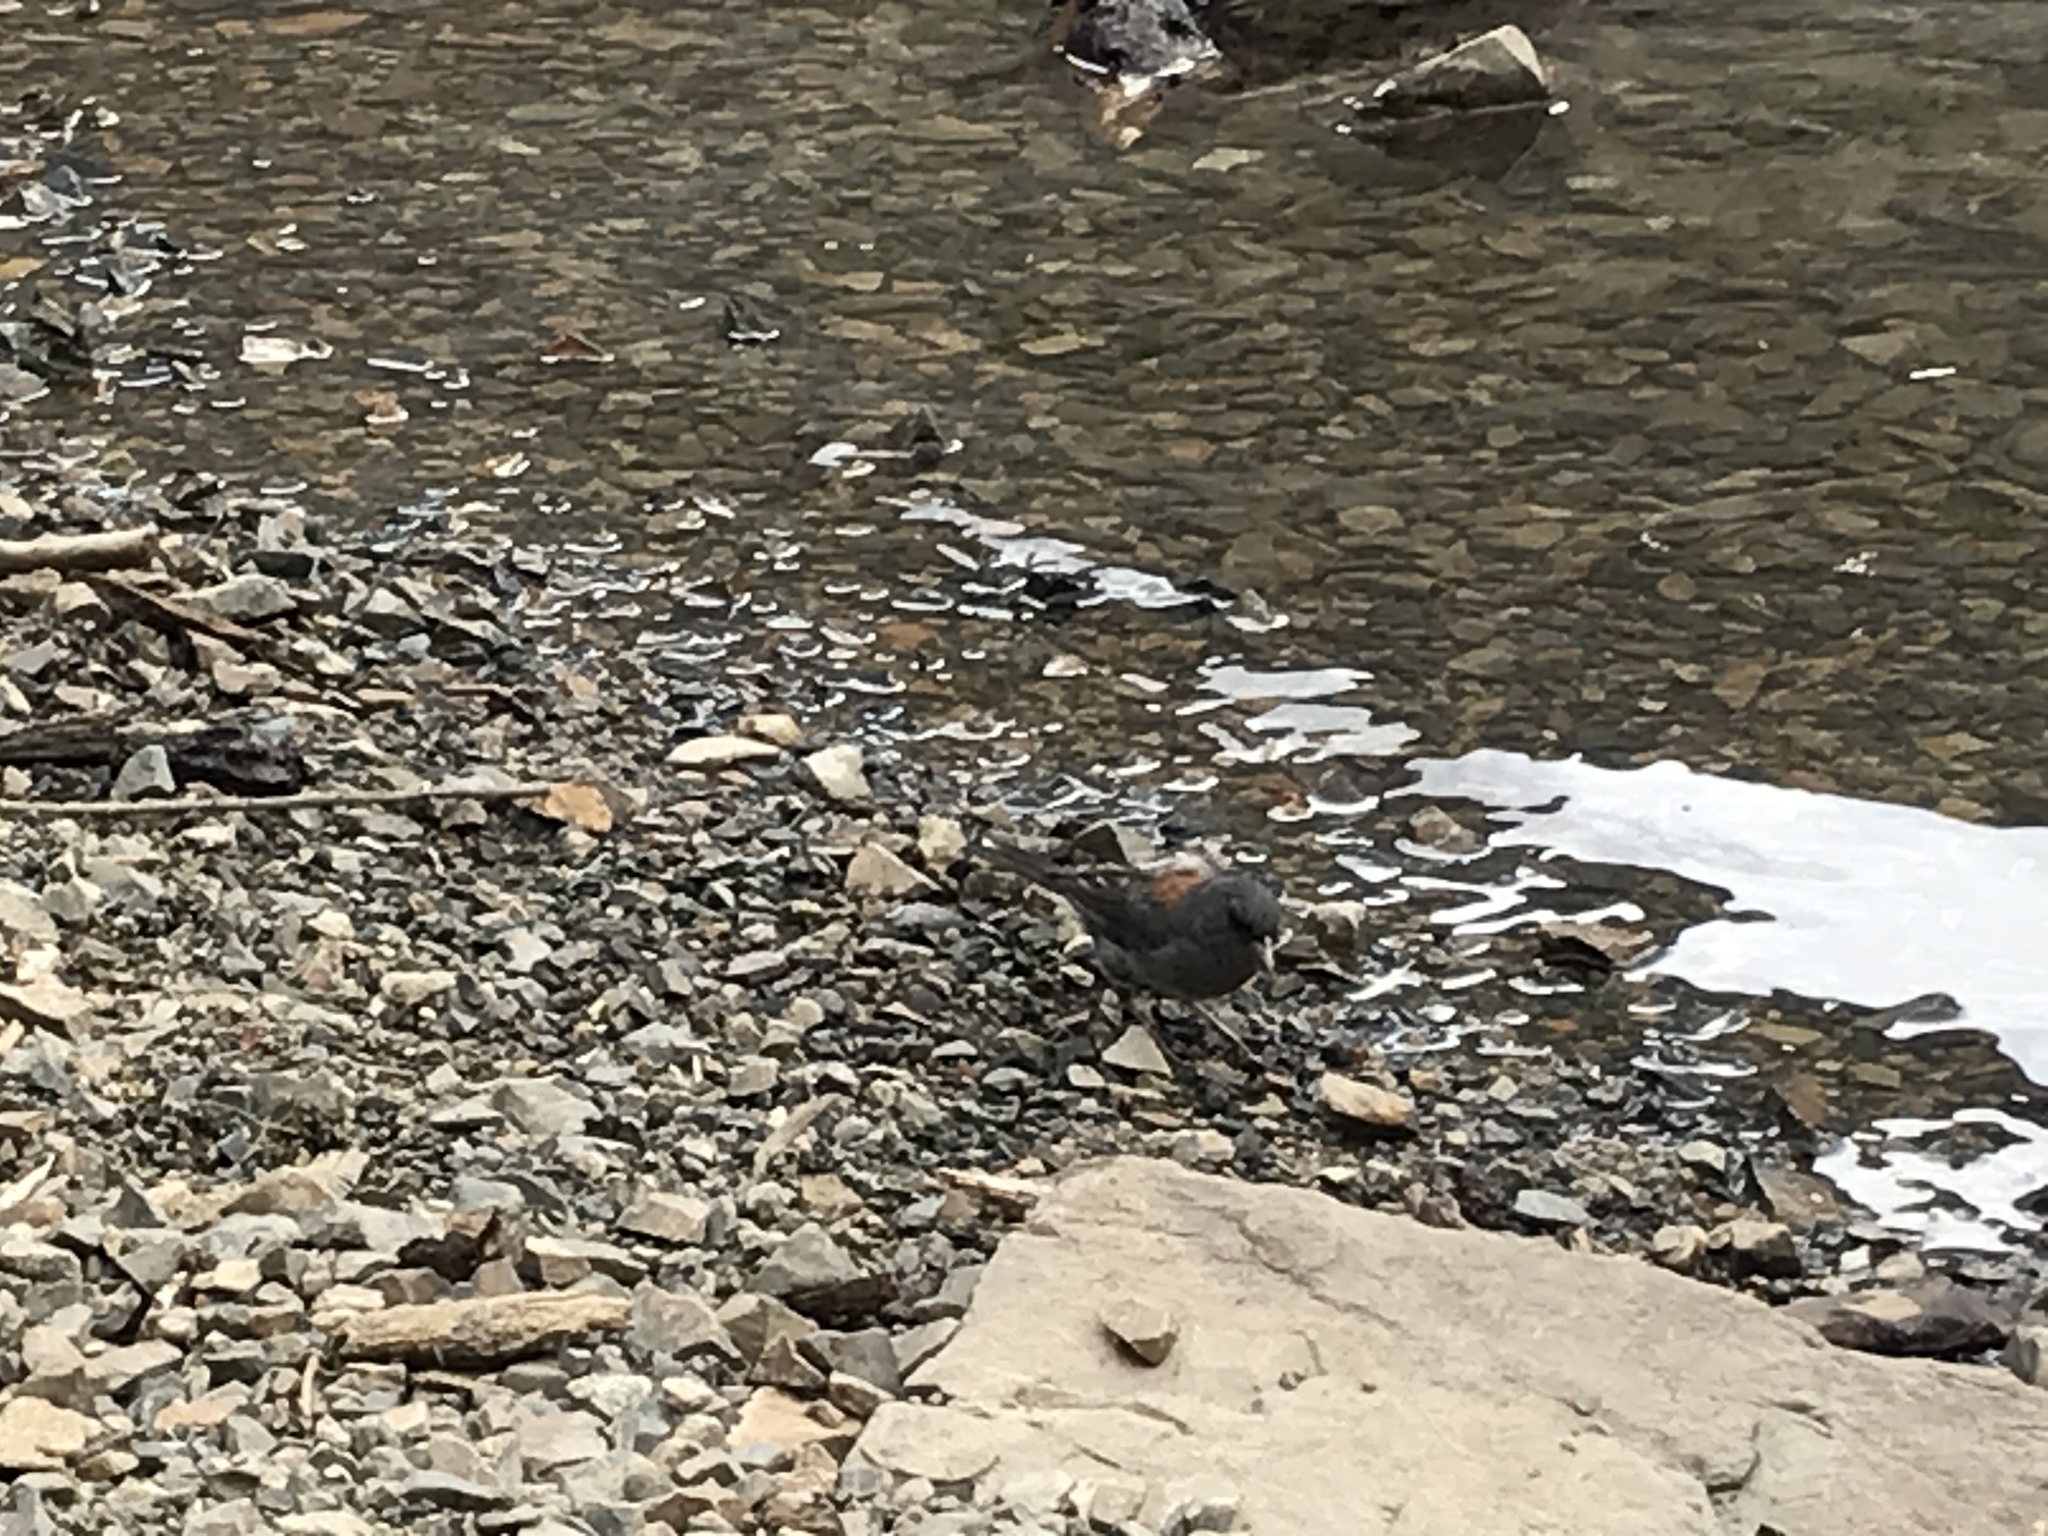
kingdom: Animalia
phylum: Chordata
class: Aves
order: Passeriformes
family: Passerellidae
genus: Junco
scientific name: Junco hyemalis
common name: Dark-eyed junco
